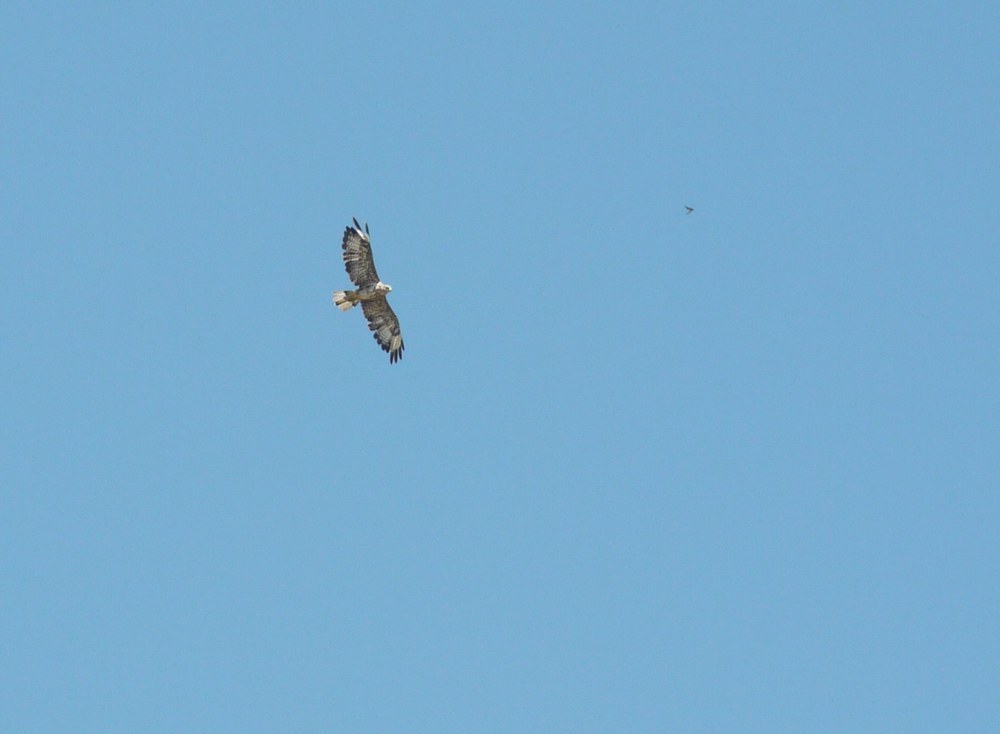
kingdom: Animalia
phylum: Chordata
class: Aves
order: Accipitriformes
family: Accipitridae
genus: Buteo
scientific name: Buteo rufinus
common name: Long-legged buzzard
